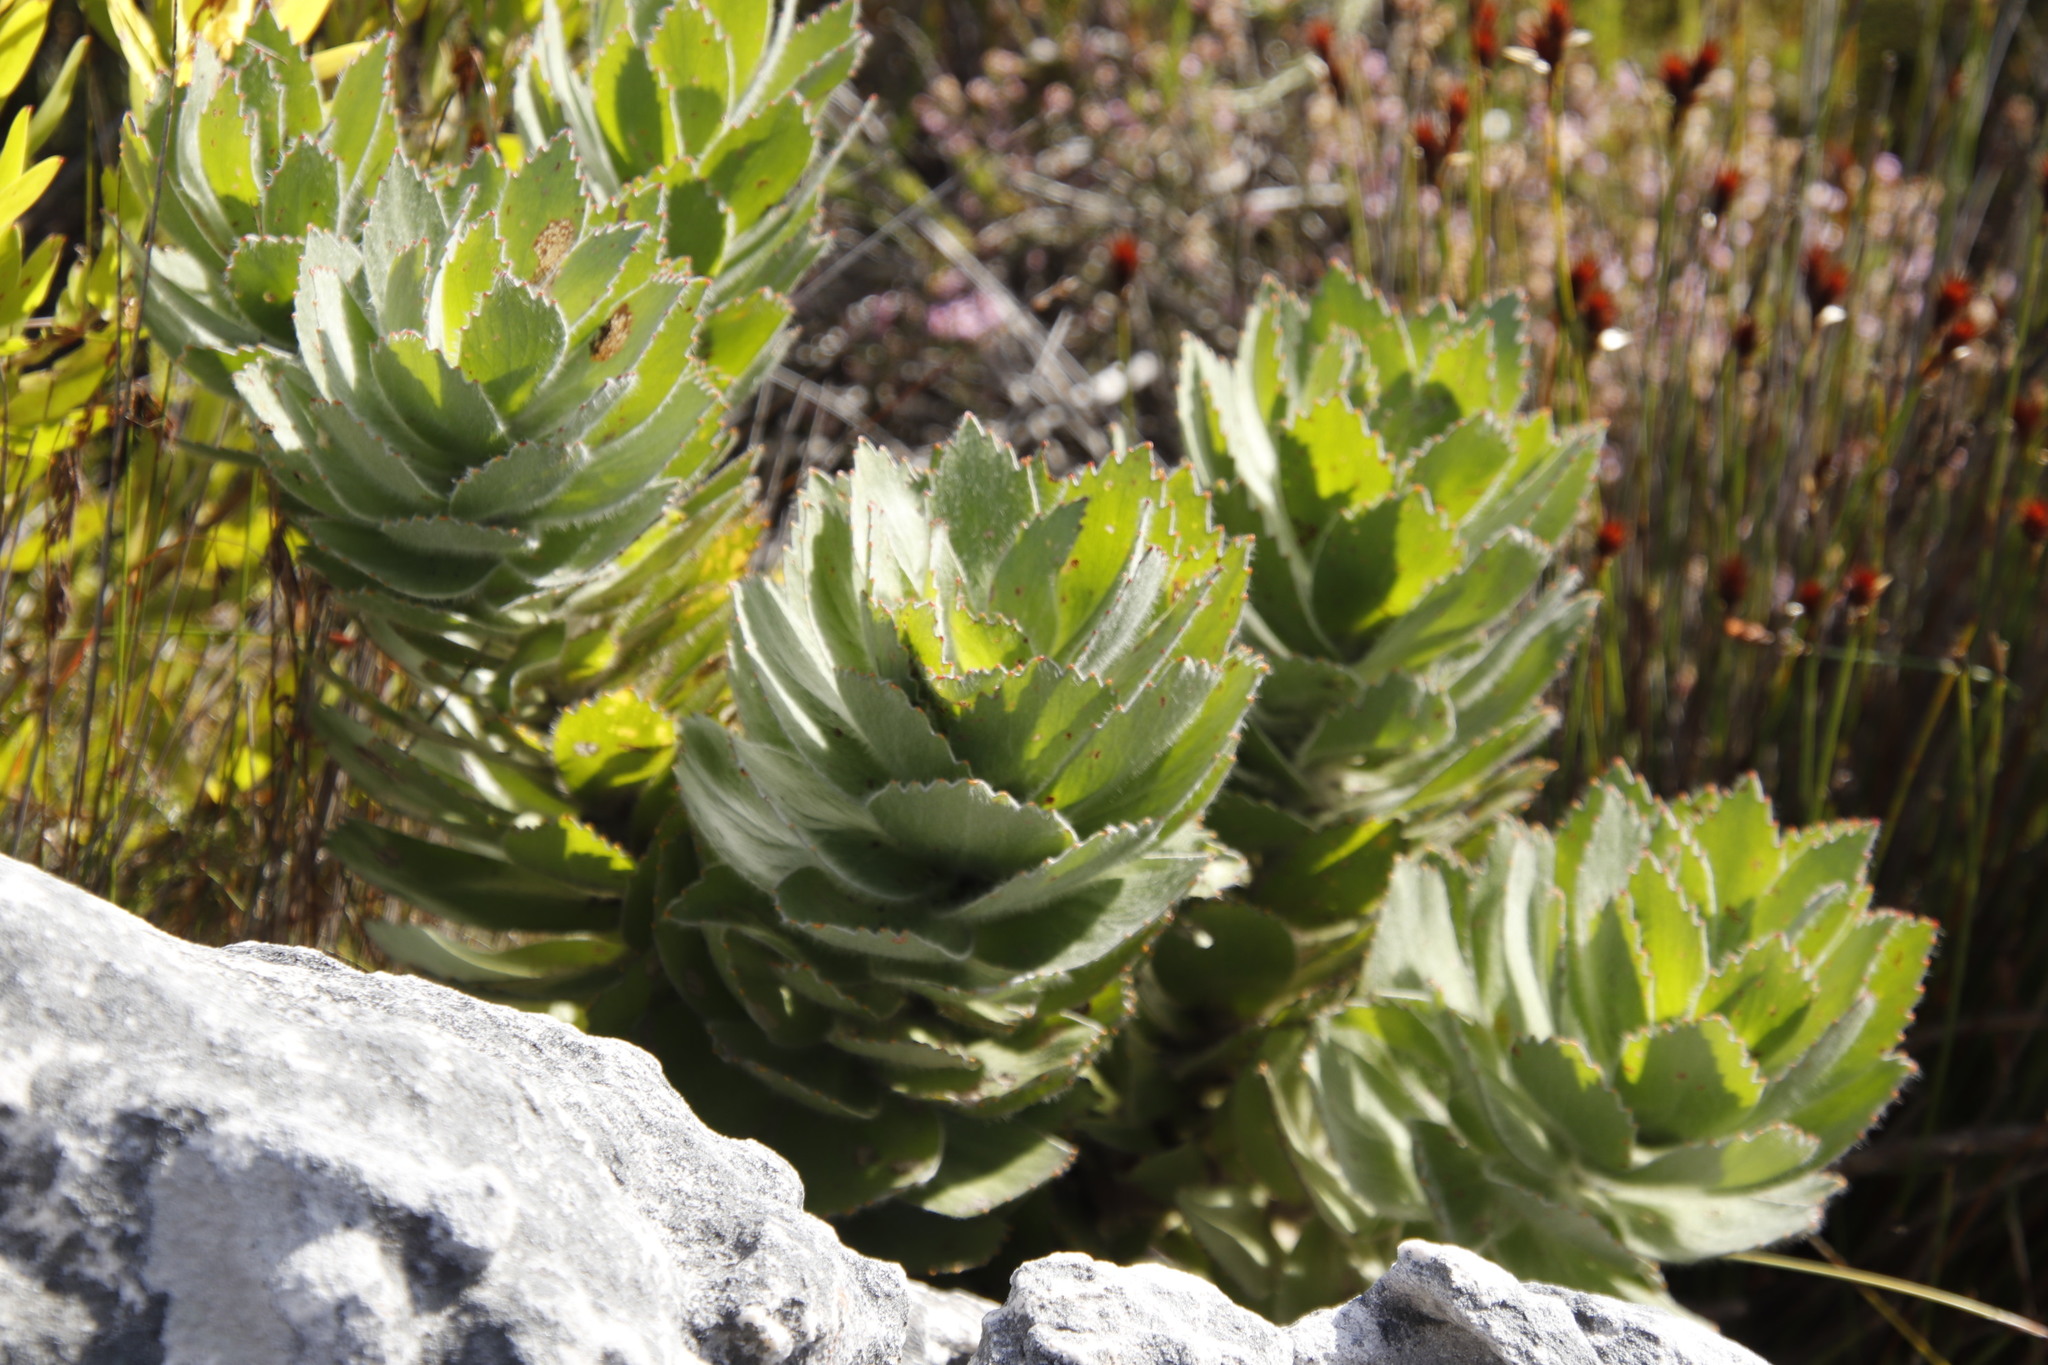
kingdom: Plantae
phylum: Tracheophyta
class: Magnoliopsida
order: Proteales
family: Proteaceae
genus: Leucospermum
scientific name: Leucospermum conocarpodendron
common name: Tree pincushion
